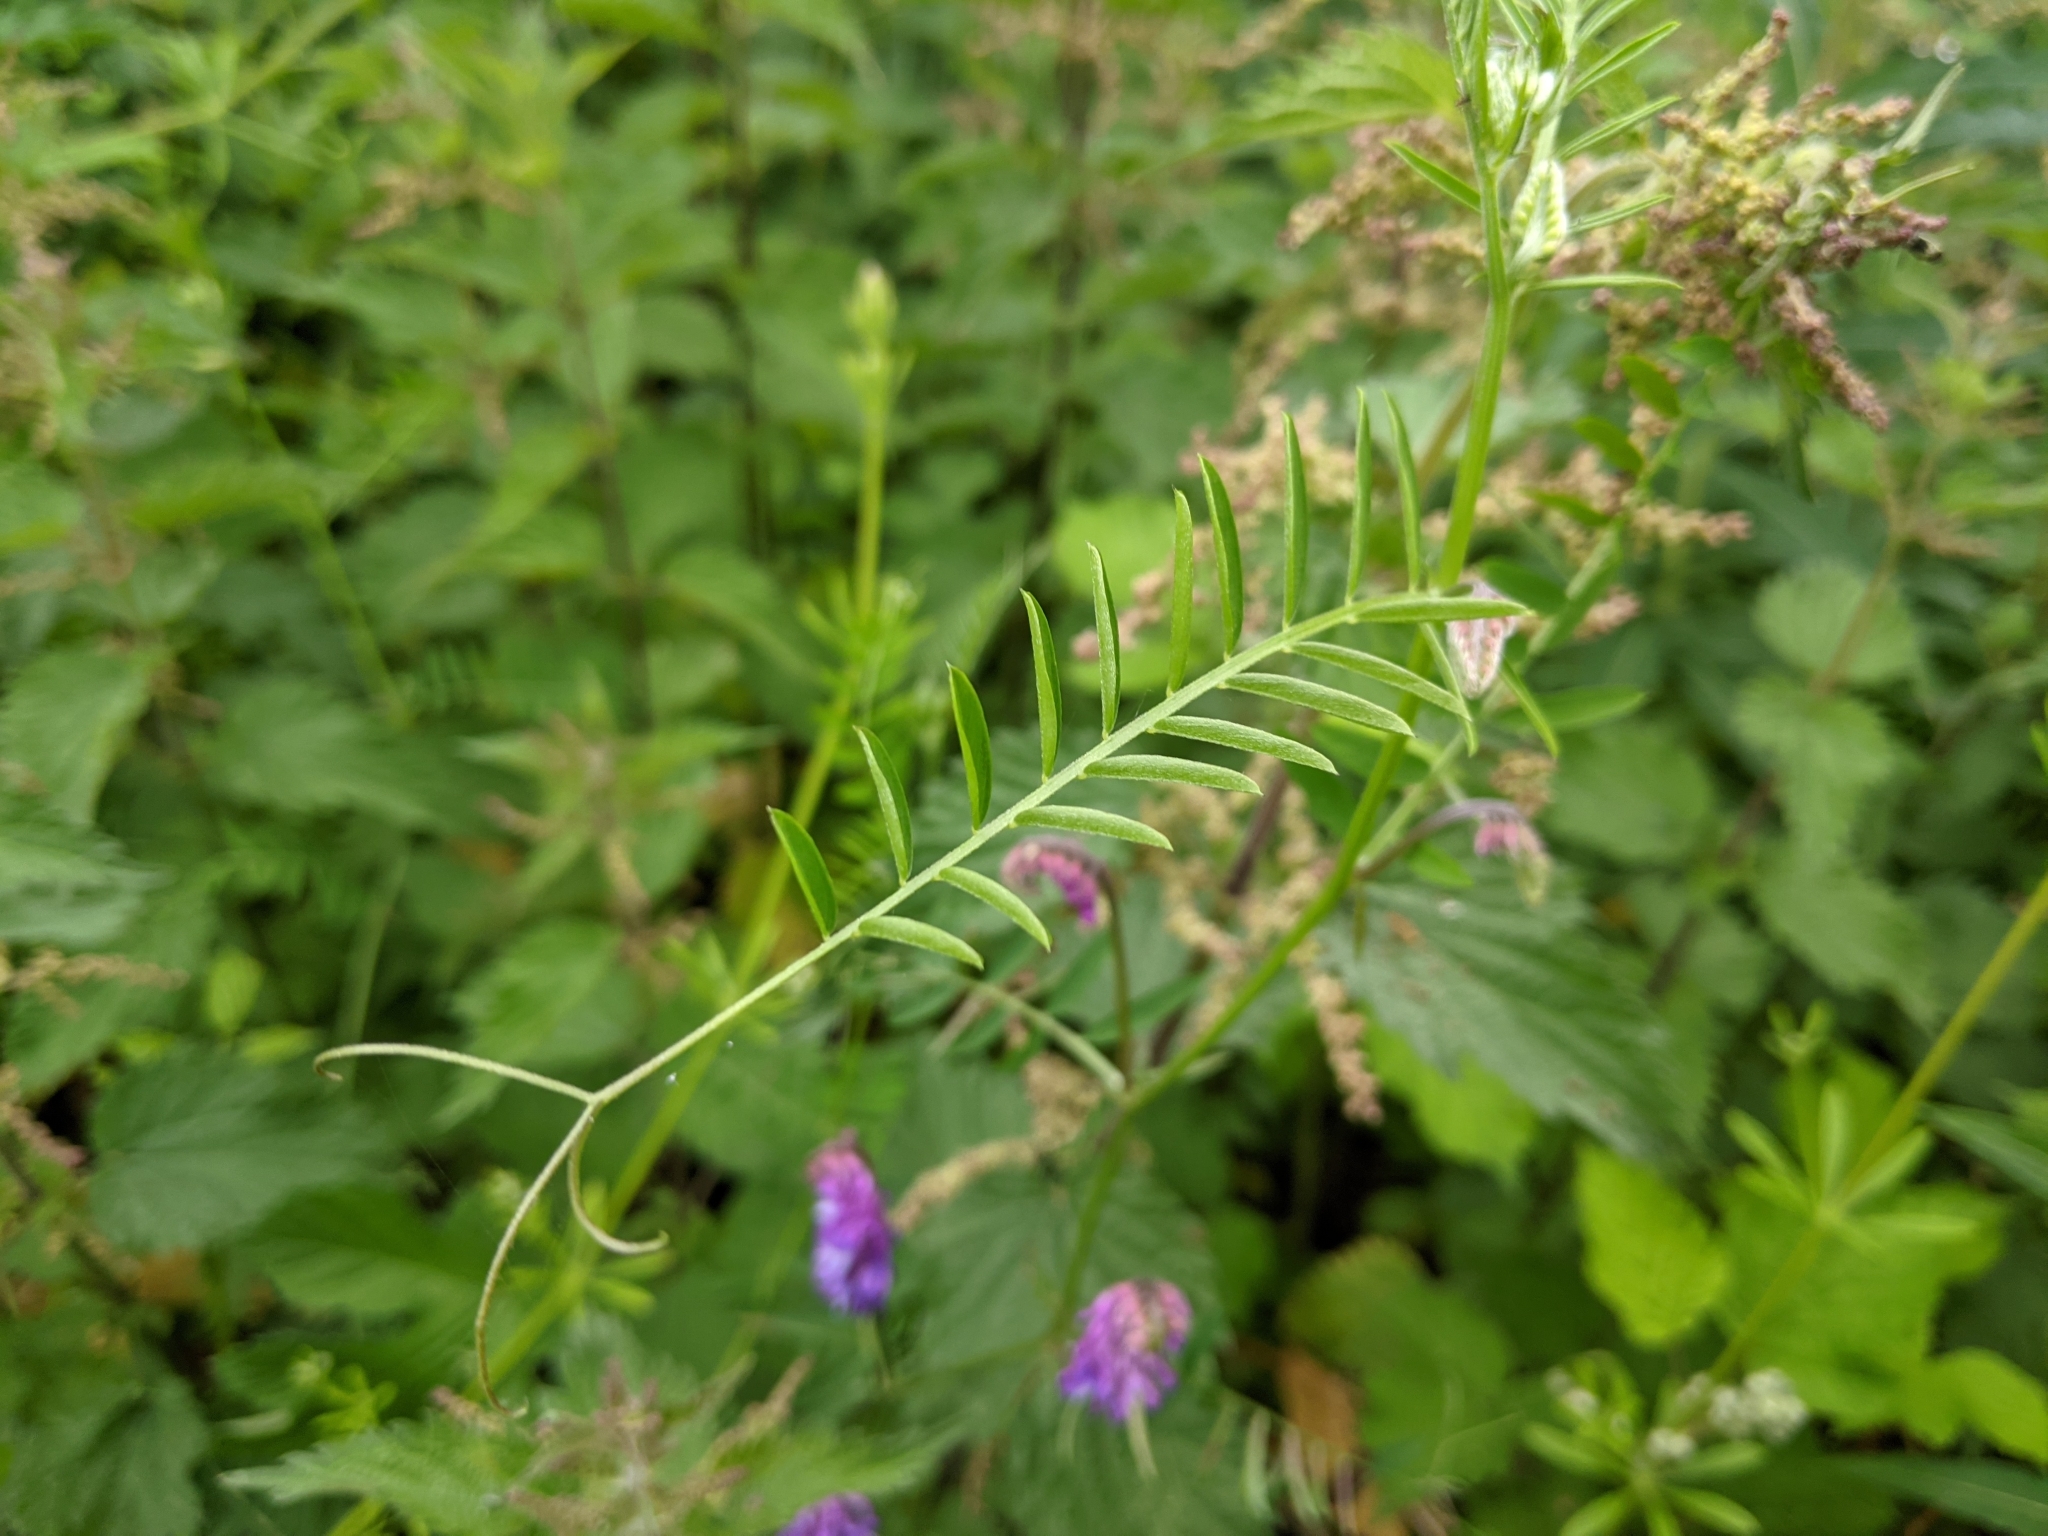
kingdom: Plantae
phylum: Tracheophyta
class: Magnoliopsida
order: Fabales
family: Fabaceae
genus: Vicia
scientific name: Vicia cracca
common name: Bird vetch
